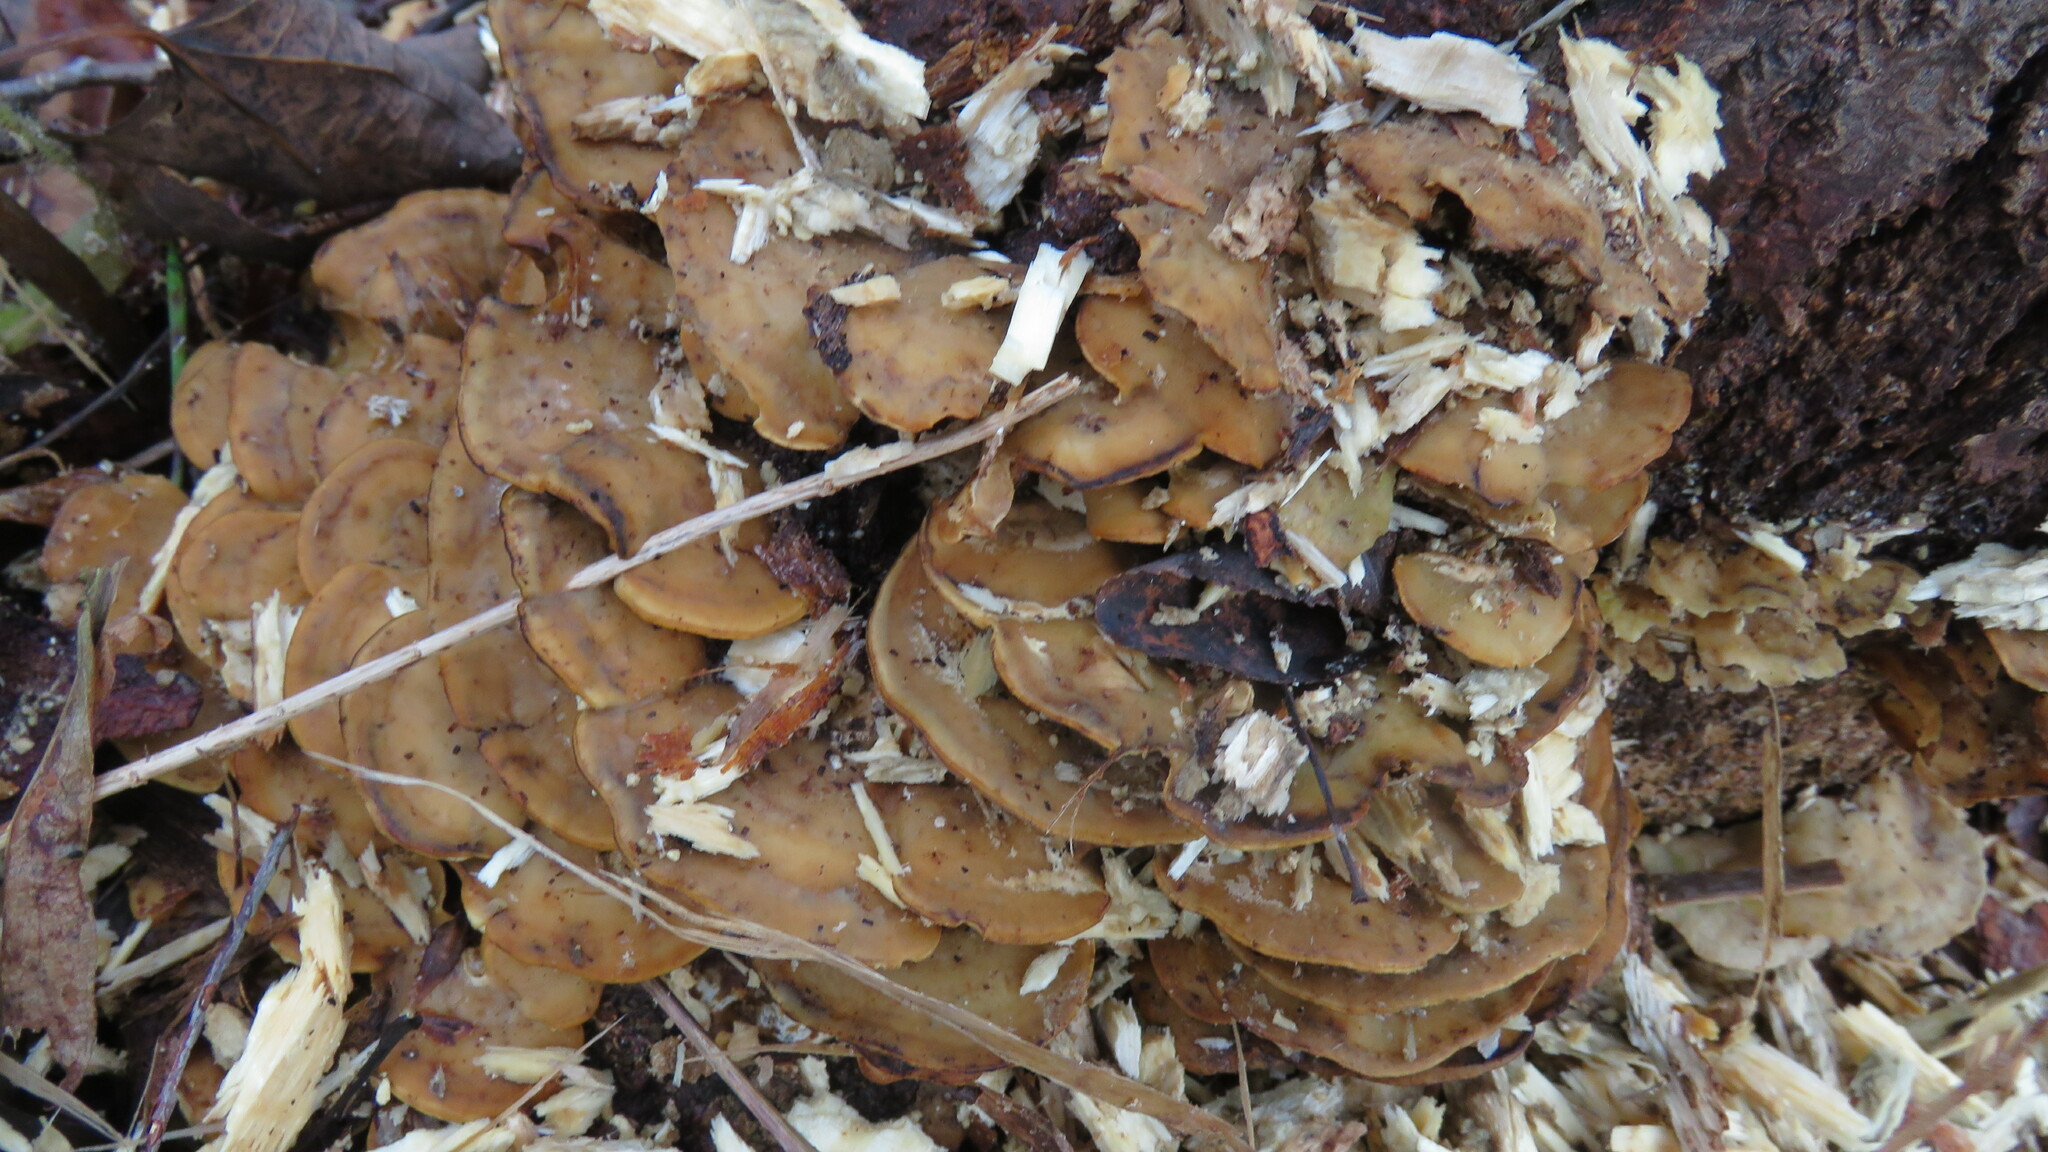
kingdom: Fungi
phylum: Basidiomycota
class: Agaricomycetes
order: Polyporales
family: Phanerochaetaceae
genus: Bjerkandera
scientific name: Bjerkandera adusta
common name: Smoky bracket
